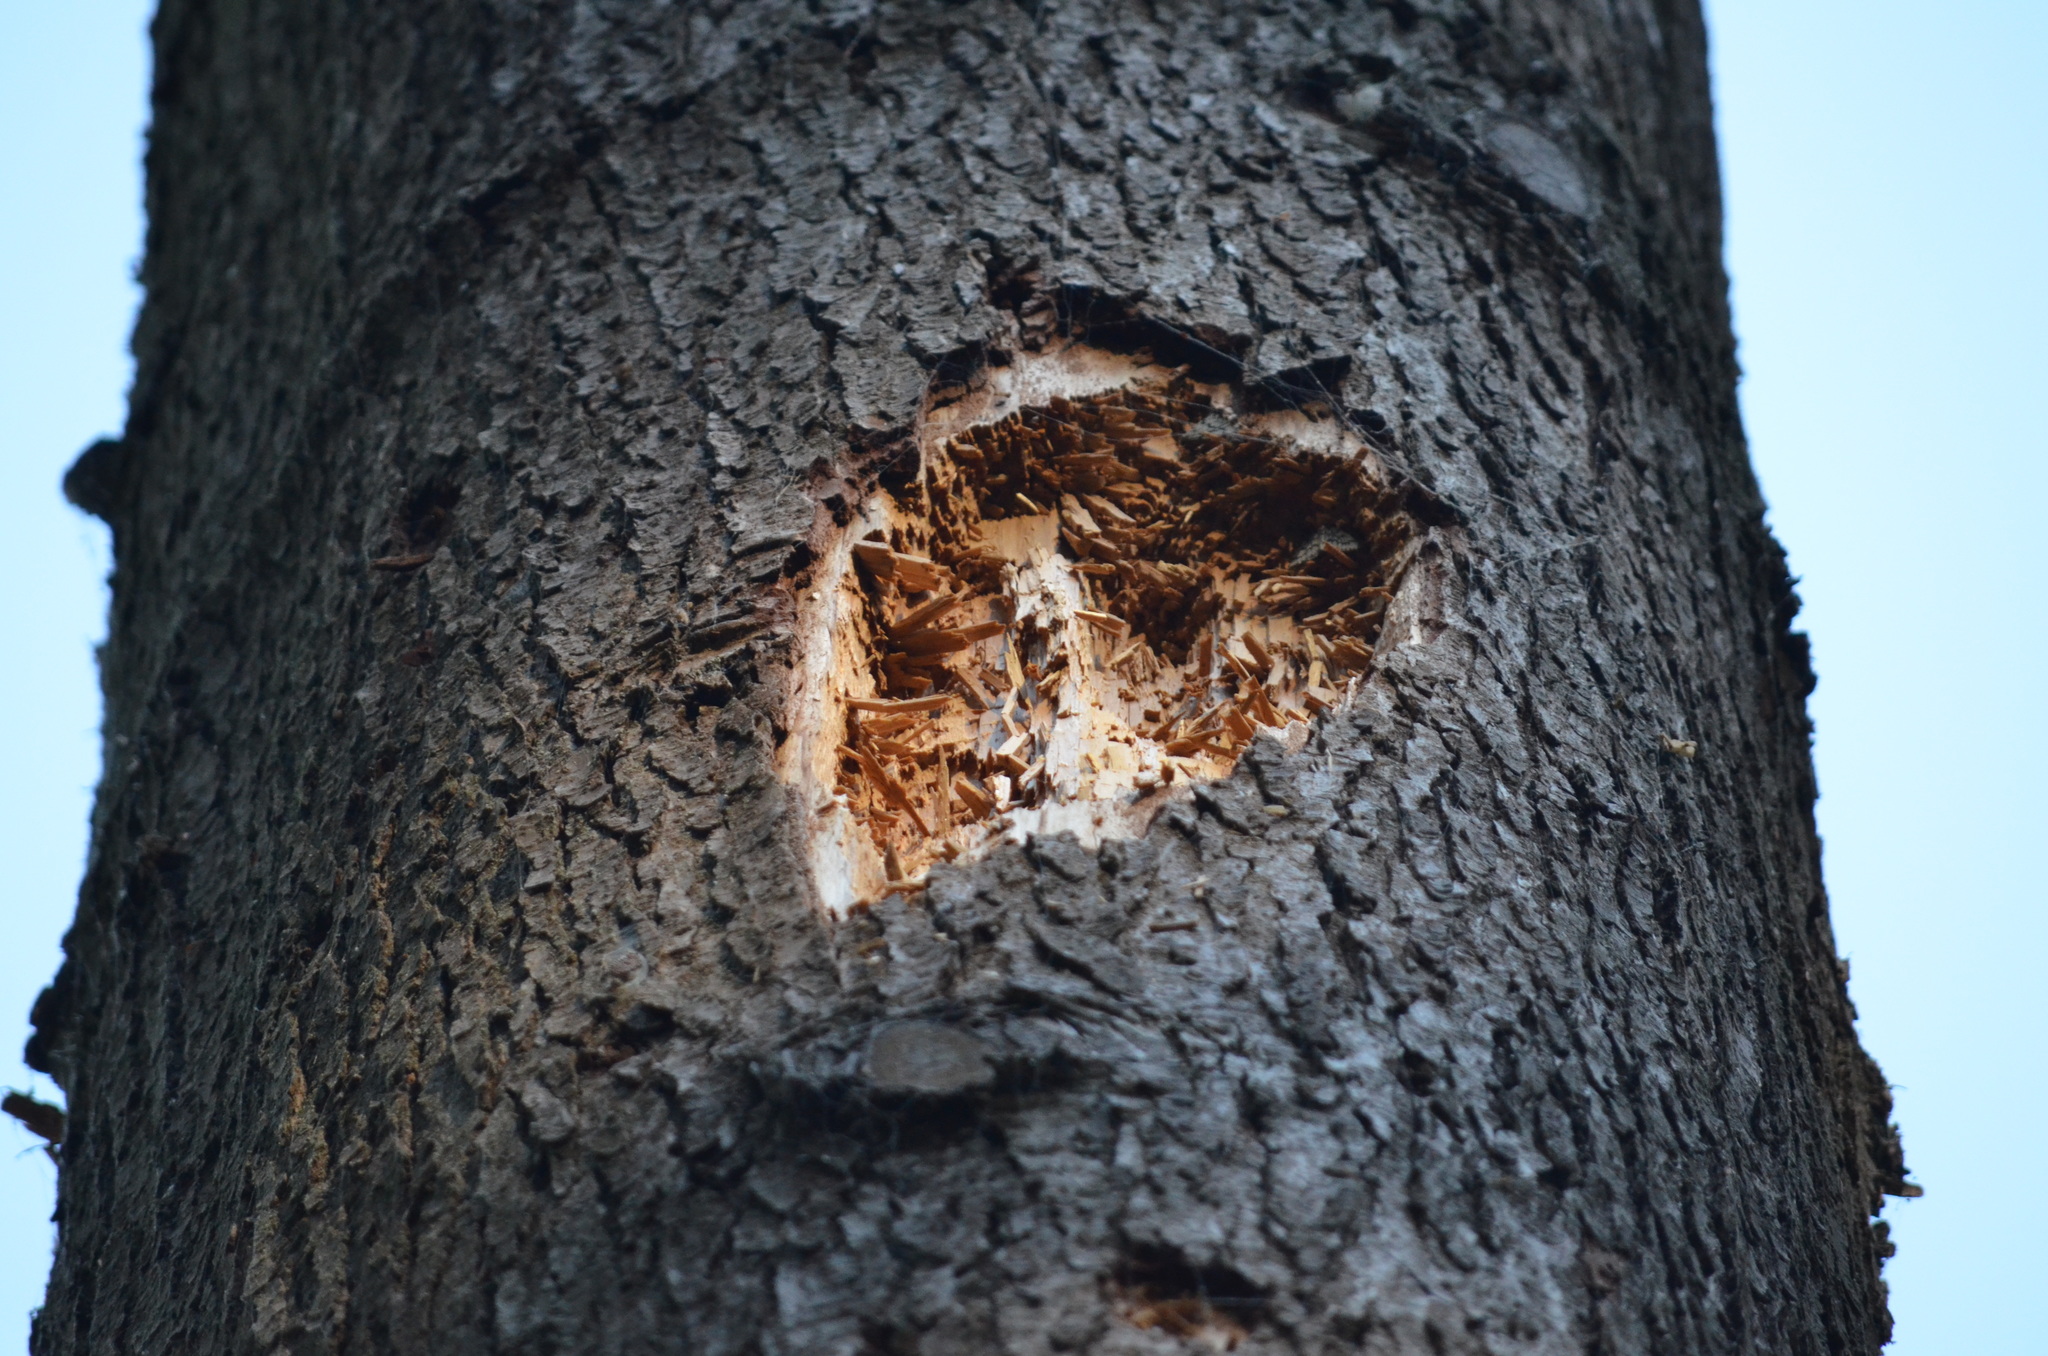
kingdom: Animalia
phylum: Chordata
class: Aves
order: Piciformes
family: Picidae
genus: Dryocopus
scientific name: Dryocopus pileatus
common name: Pileated woodpecker
